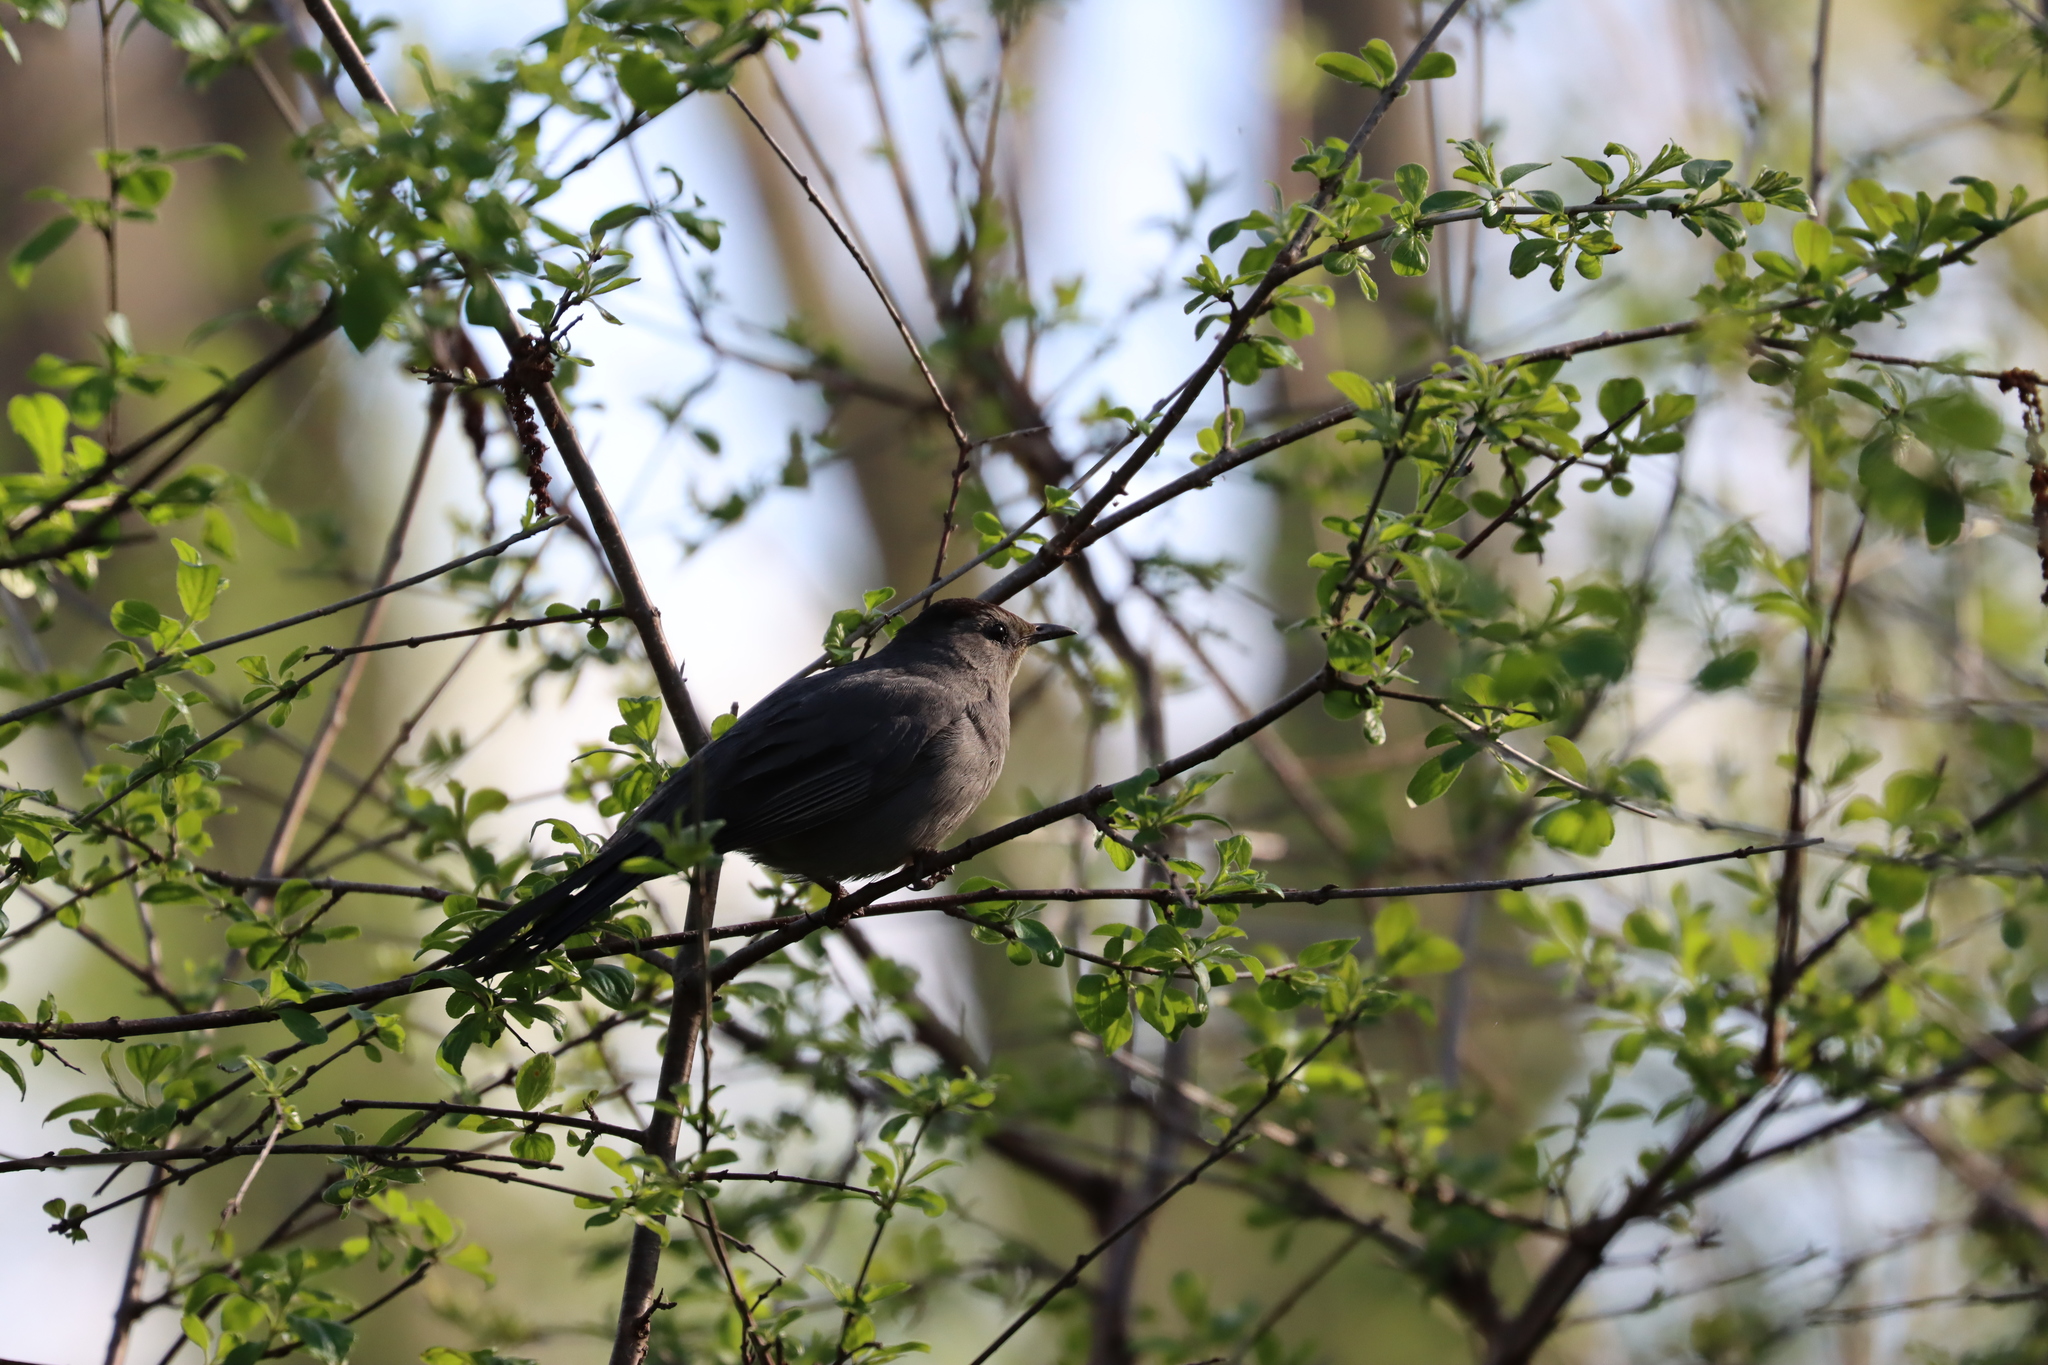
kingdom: Animalia
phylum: Chordata
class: Aves
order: Passeriformes
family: Mimidae
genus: Dumetella
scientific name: Dumetella carolinensis
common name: Gray catbird
